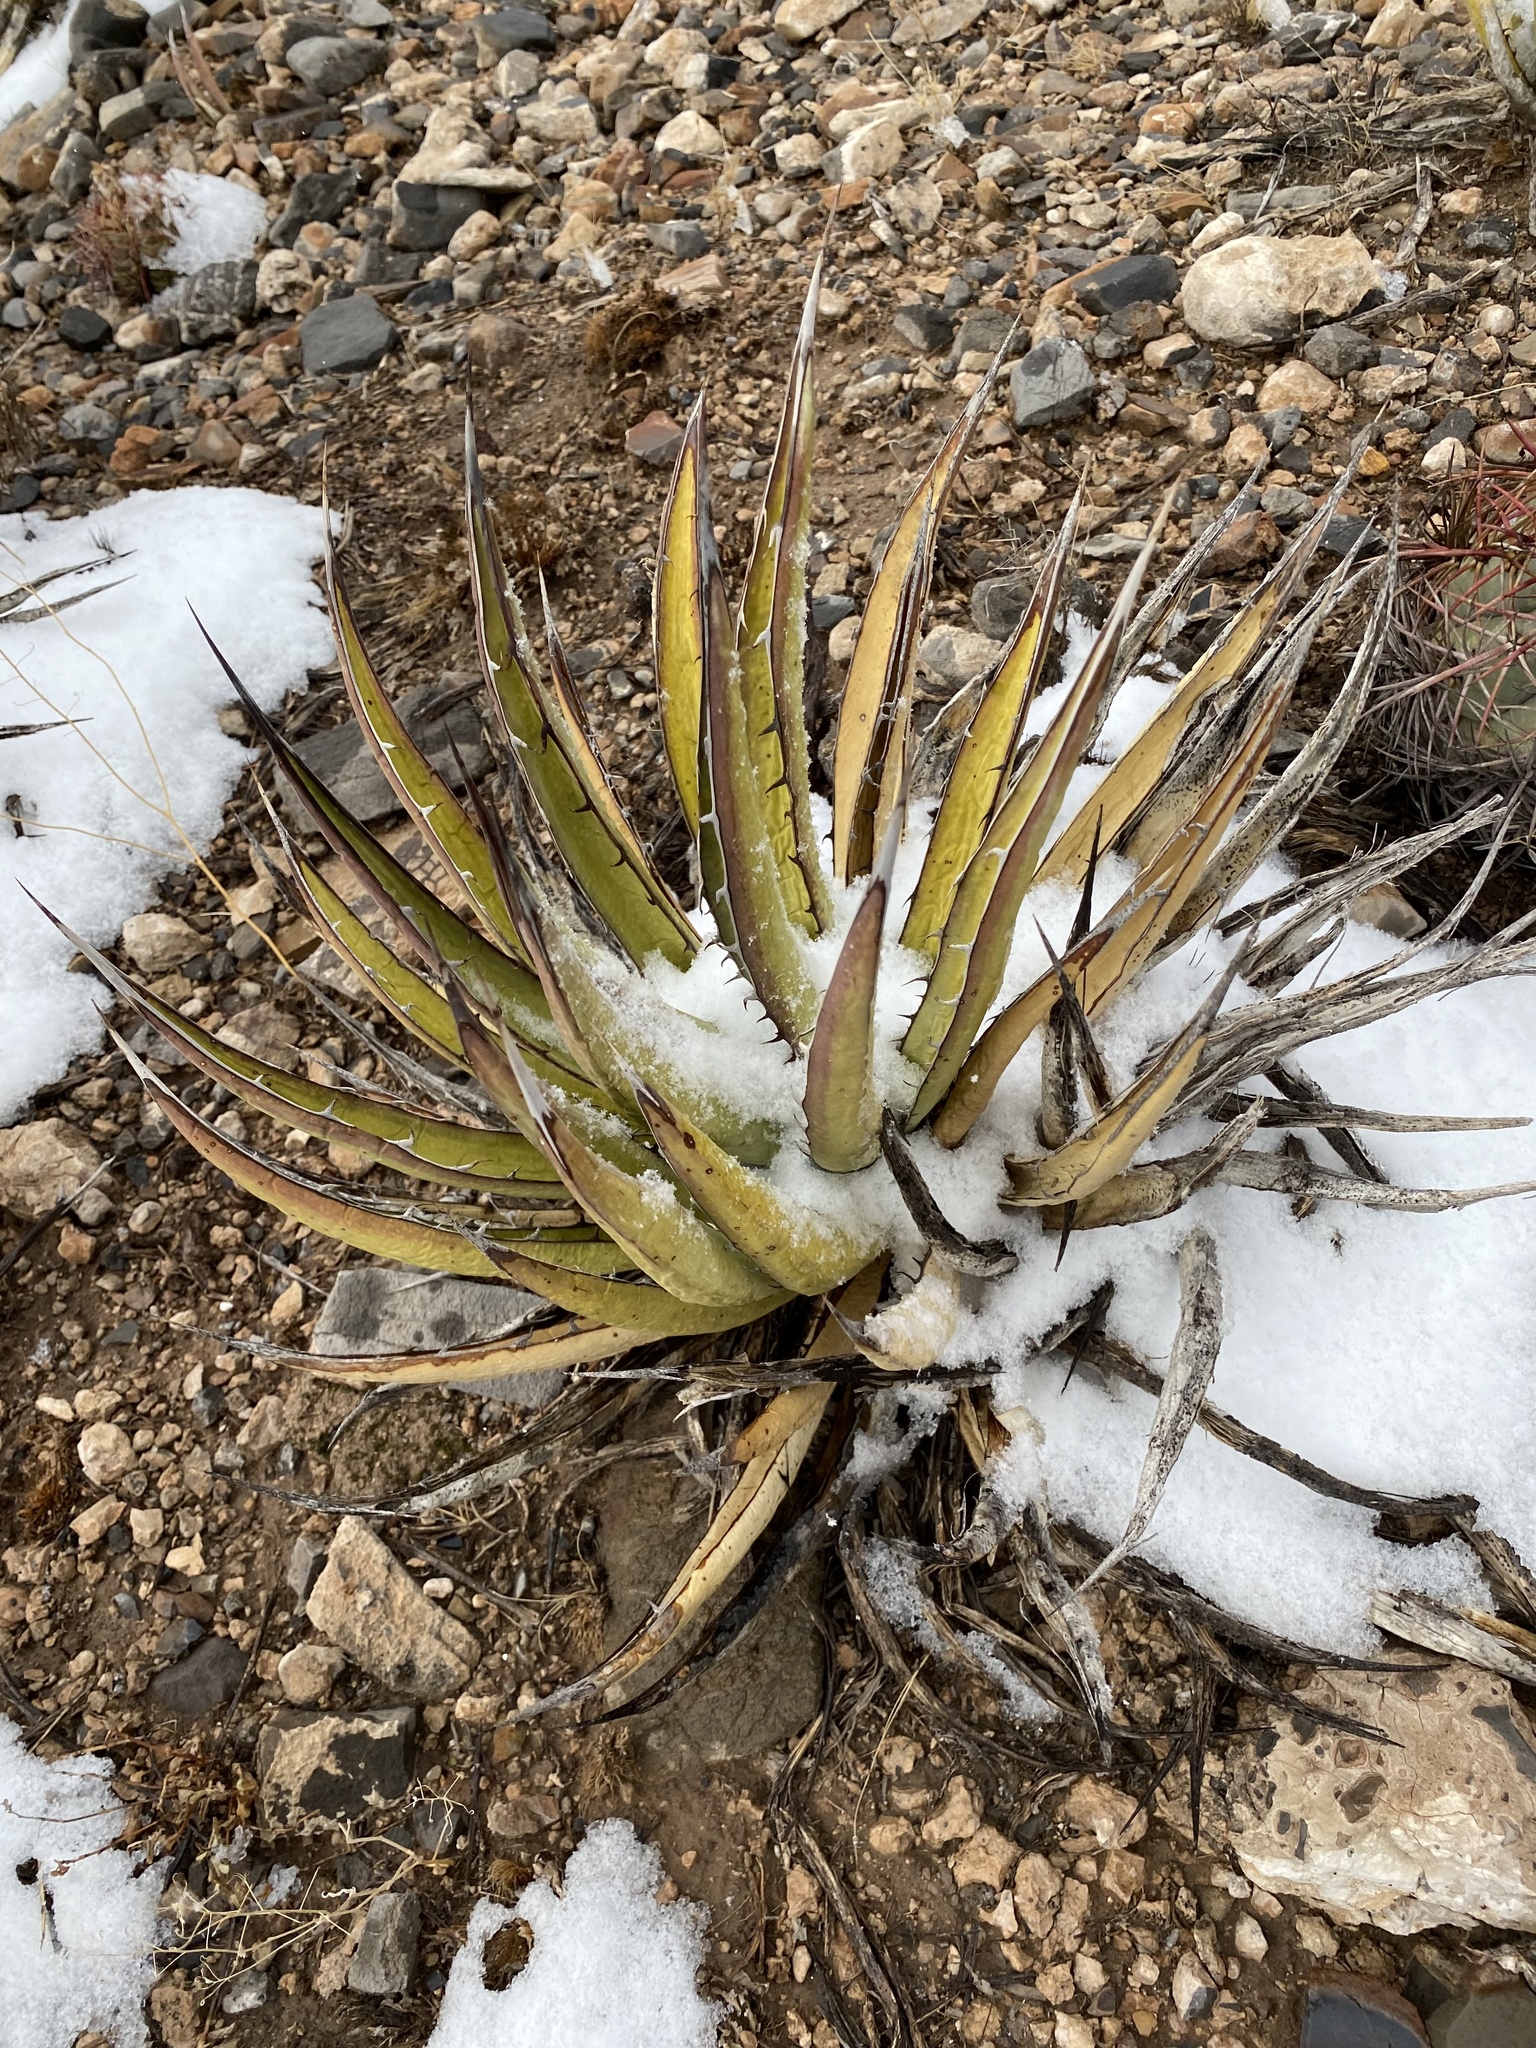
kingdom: Plantae
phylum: Tracheophyta
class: Liliopsida
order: Asparagales
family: Asparagaceae
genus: Agave
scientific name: Agave lechuguilla
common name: Lecheguilla agave
